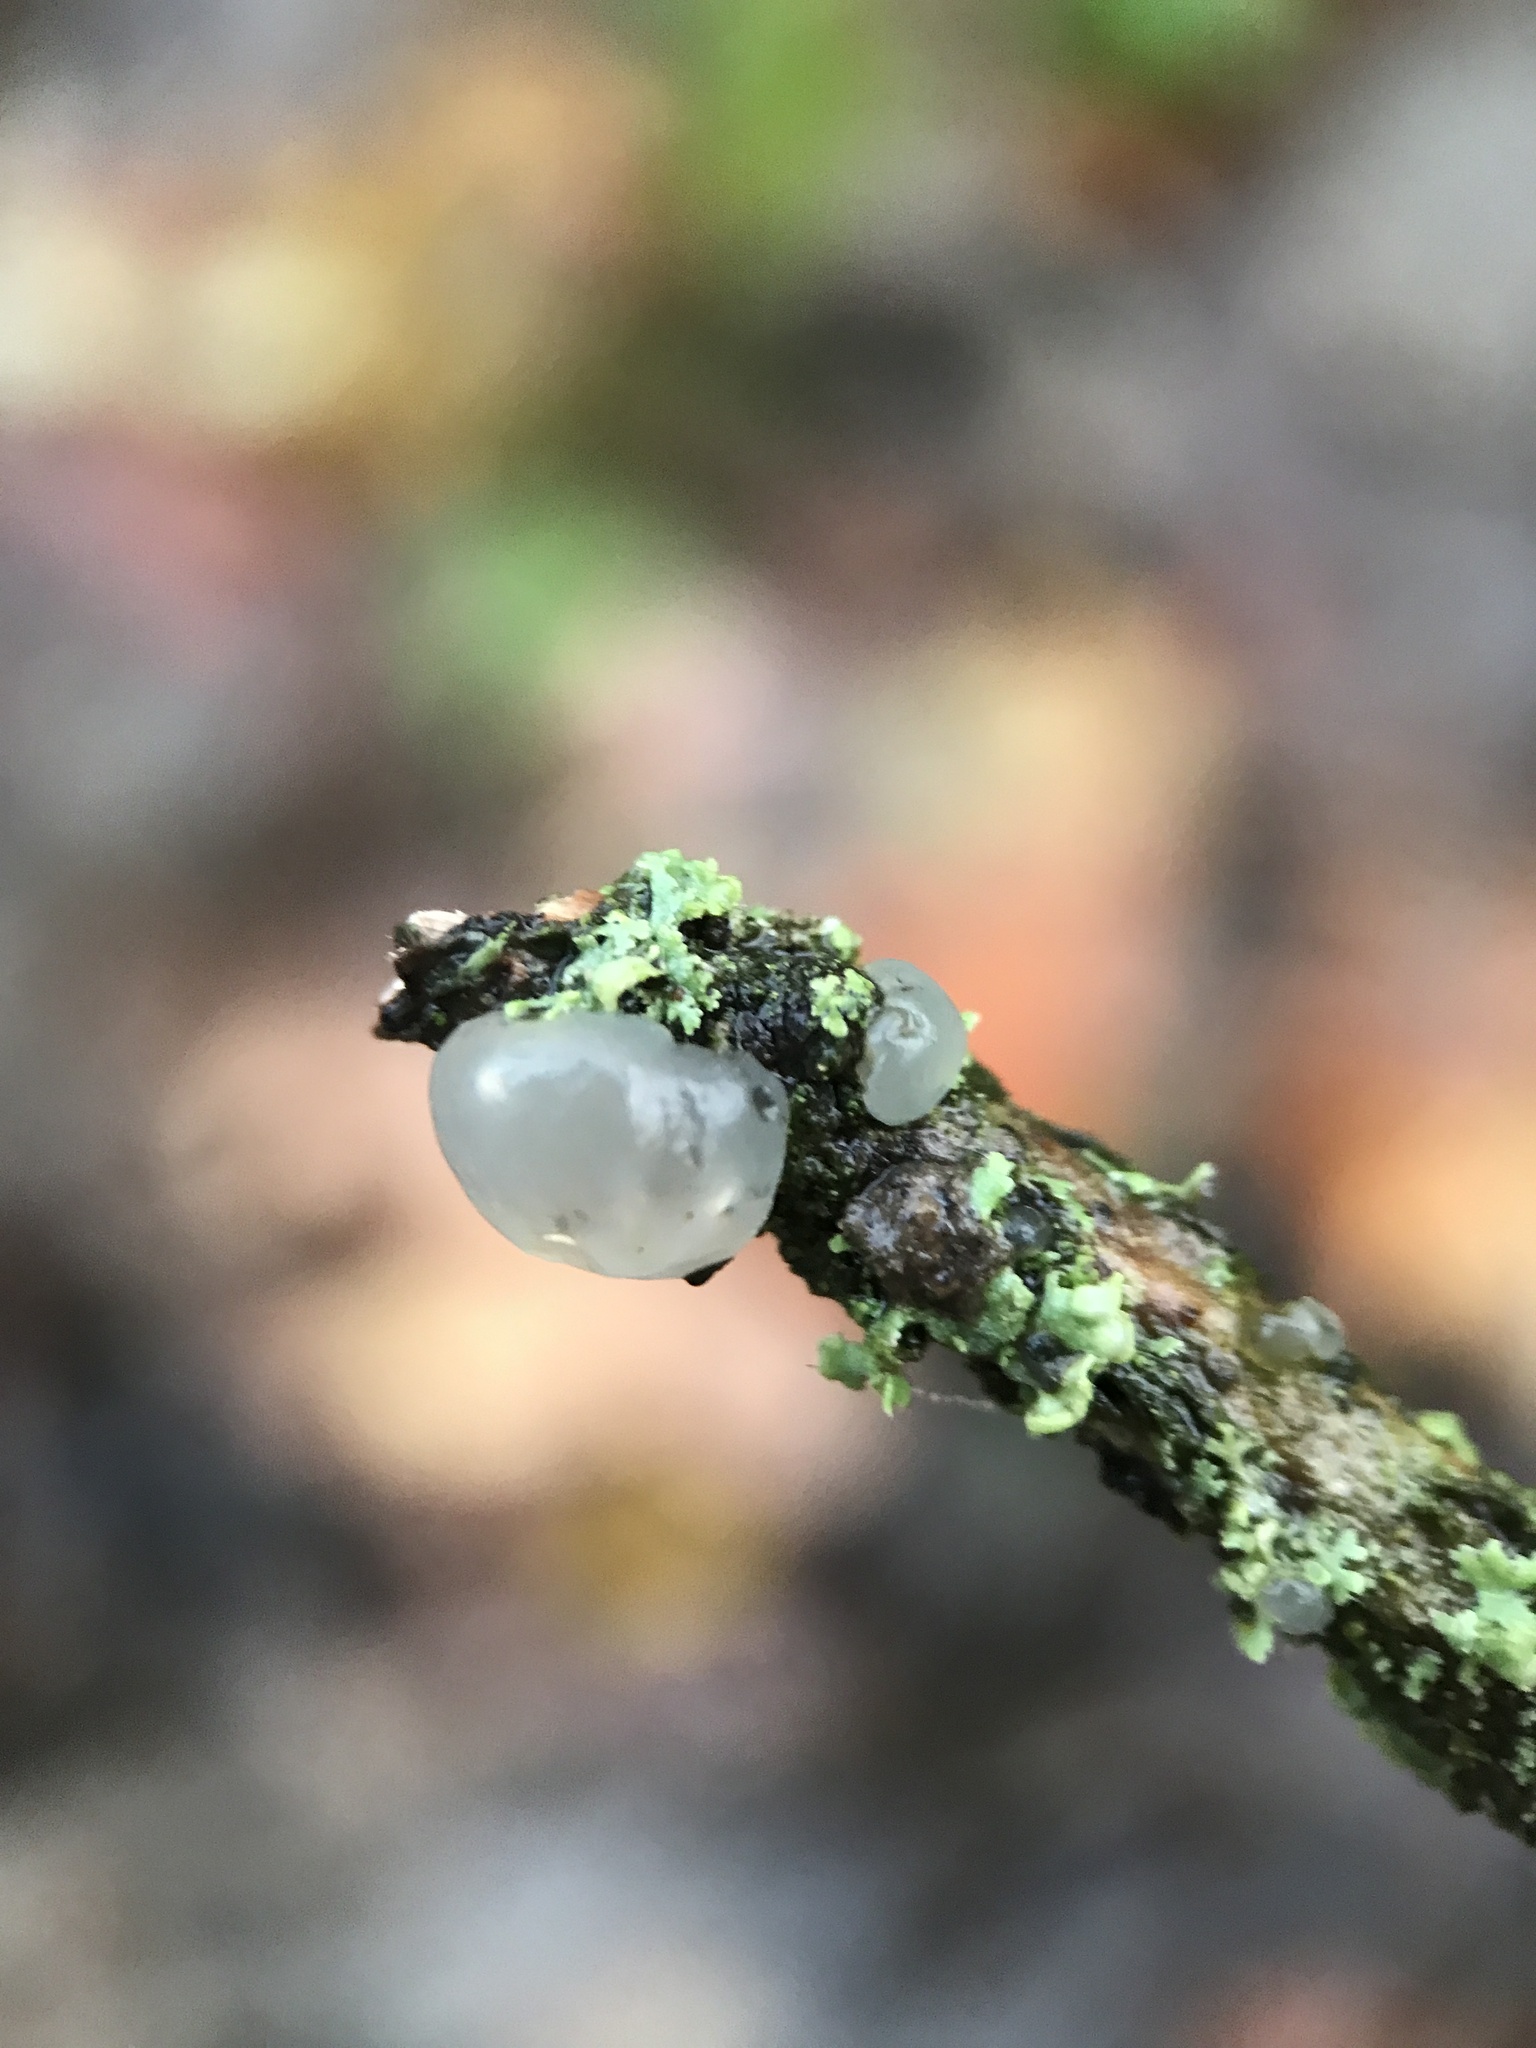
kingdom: Fungi
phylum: Basidiomycota
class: Agaricomycetes
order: Auriculariales
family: Hyaloriaceae
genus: Myxarium
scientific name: Myxarium nucleatum
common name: Crystal brain fungus
